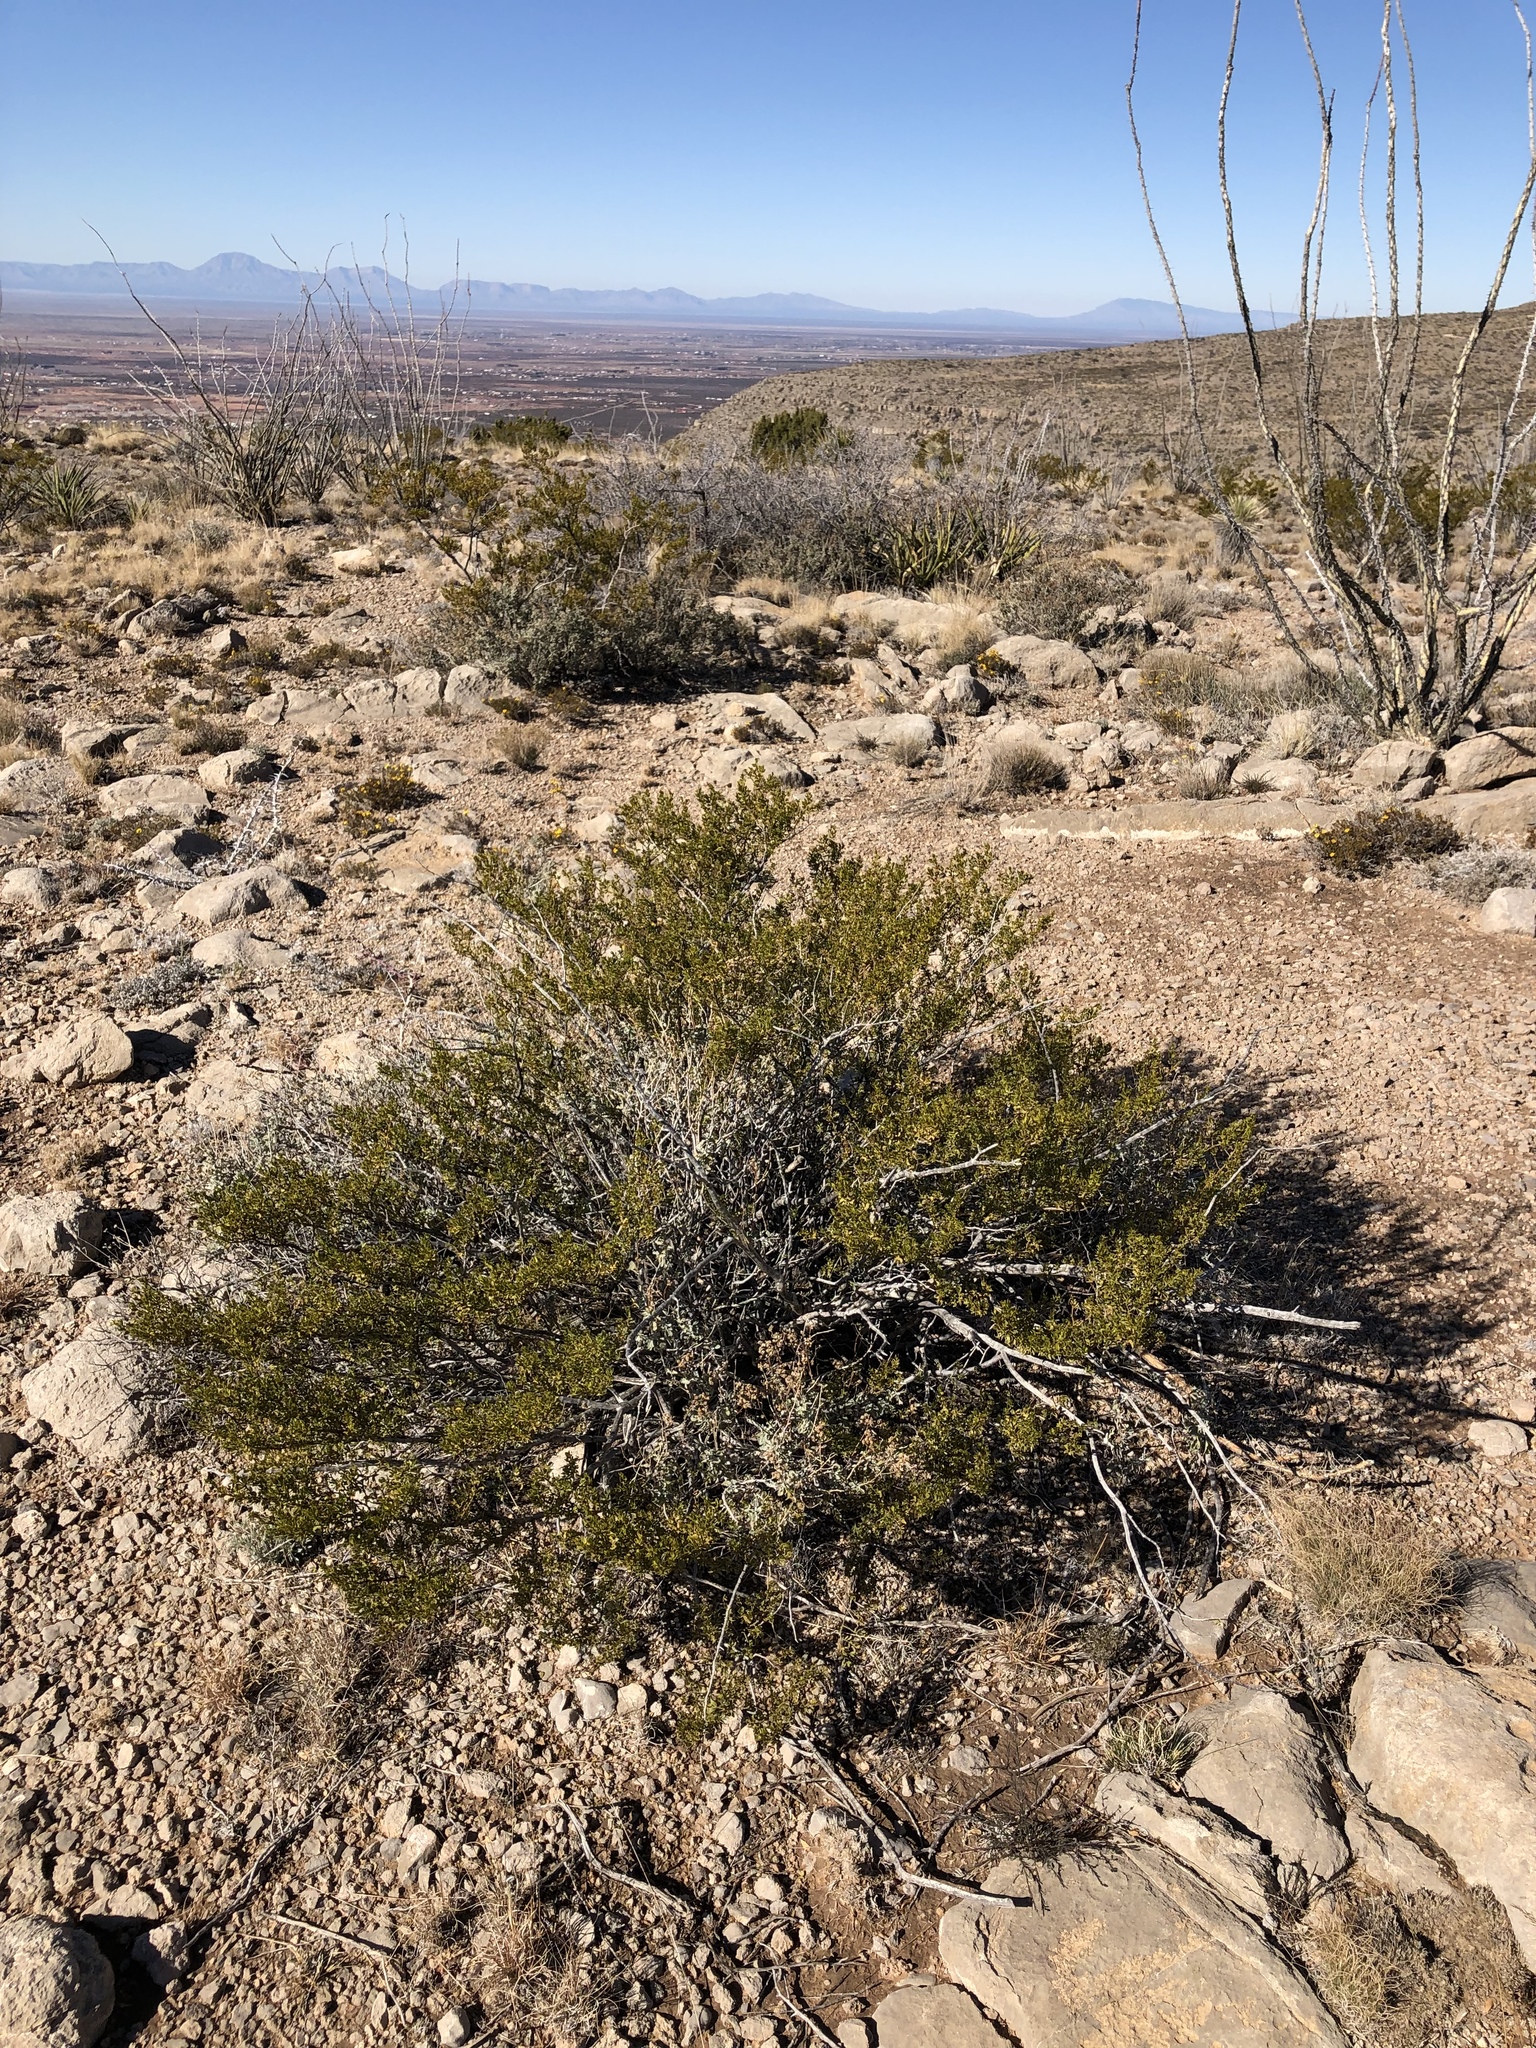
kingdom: Plantae
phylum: Tracheophyta
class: Magnoliopsida
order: Zygophyllales
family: Zygophyllaceae
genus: Larrea
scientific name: Larrea tridentata
